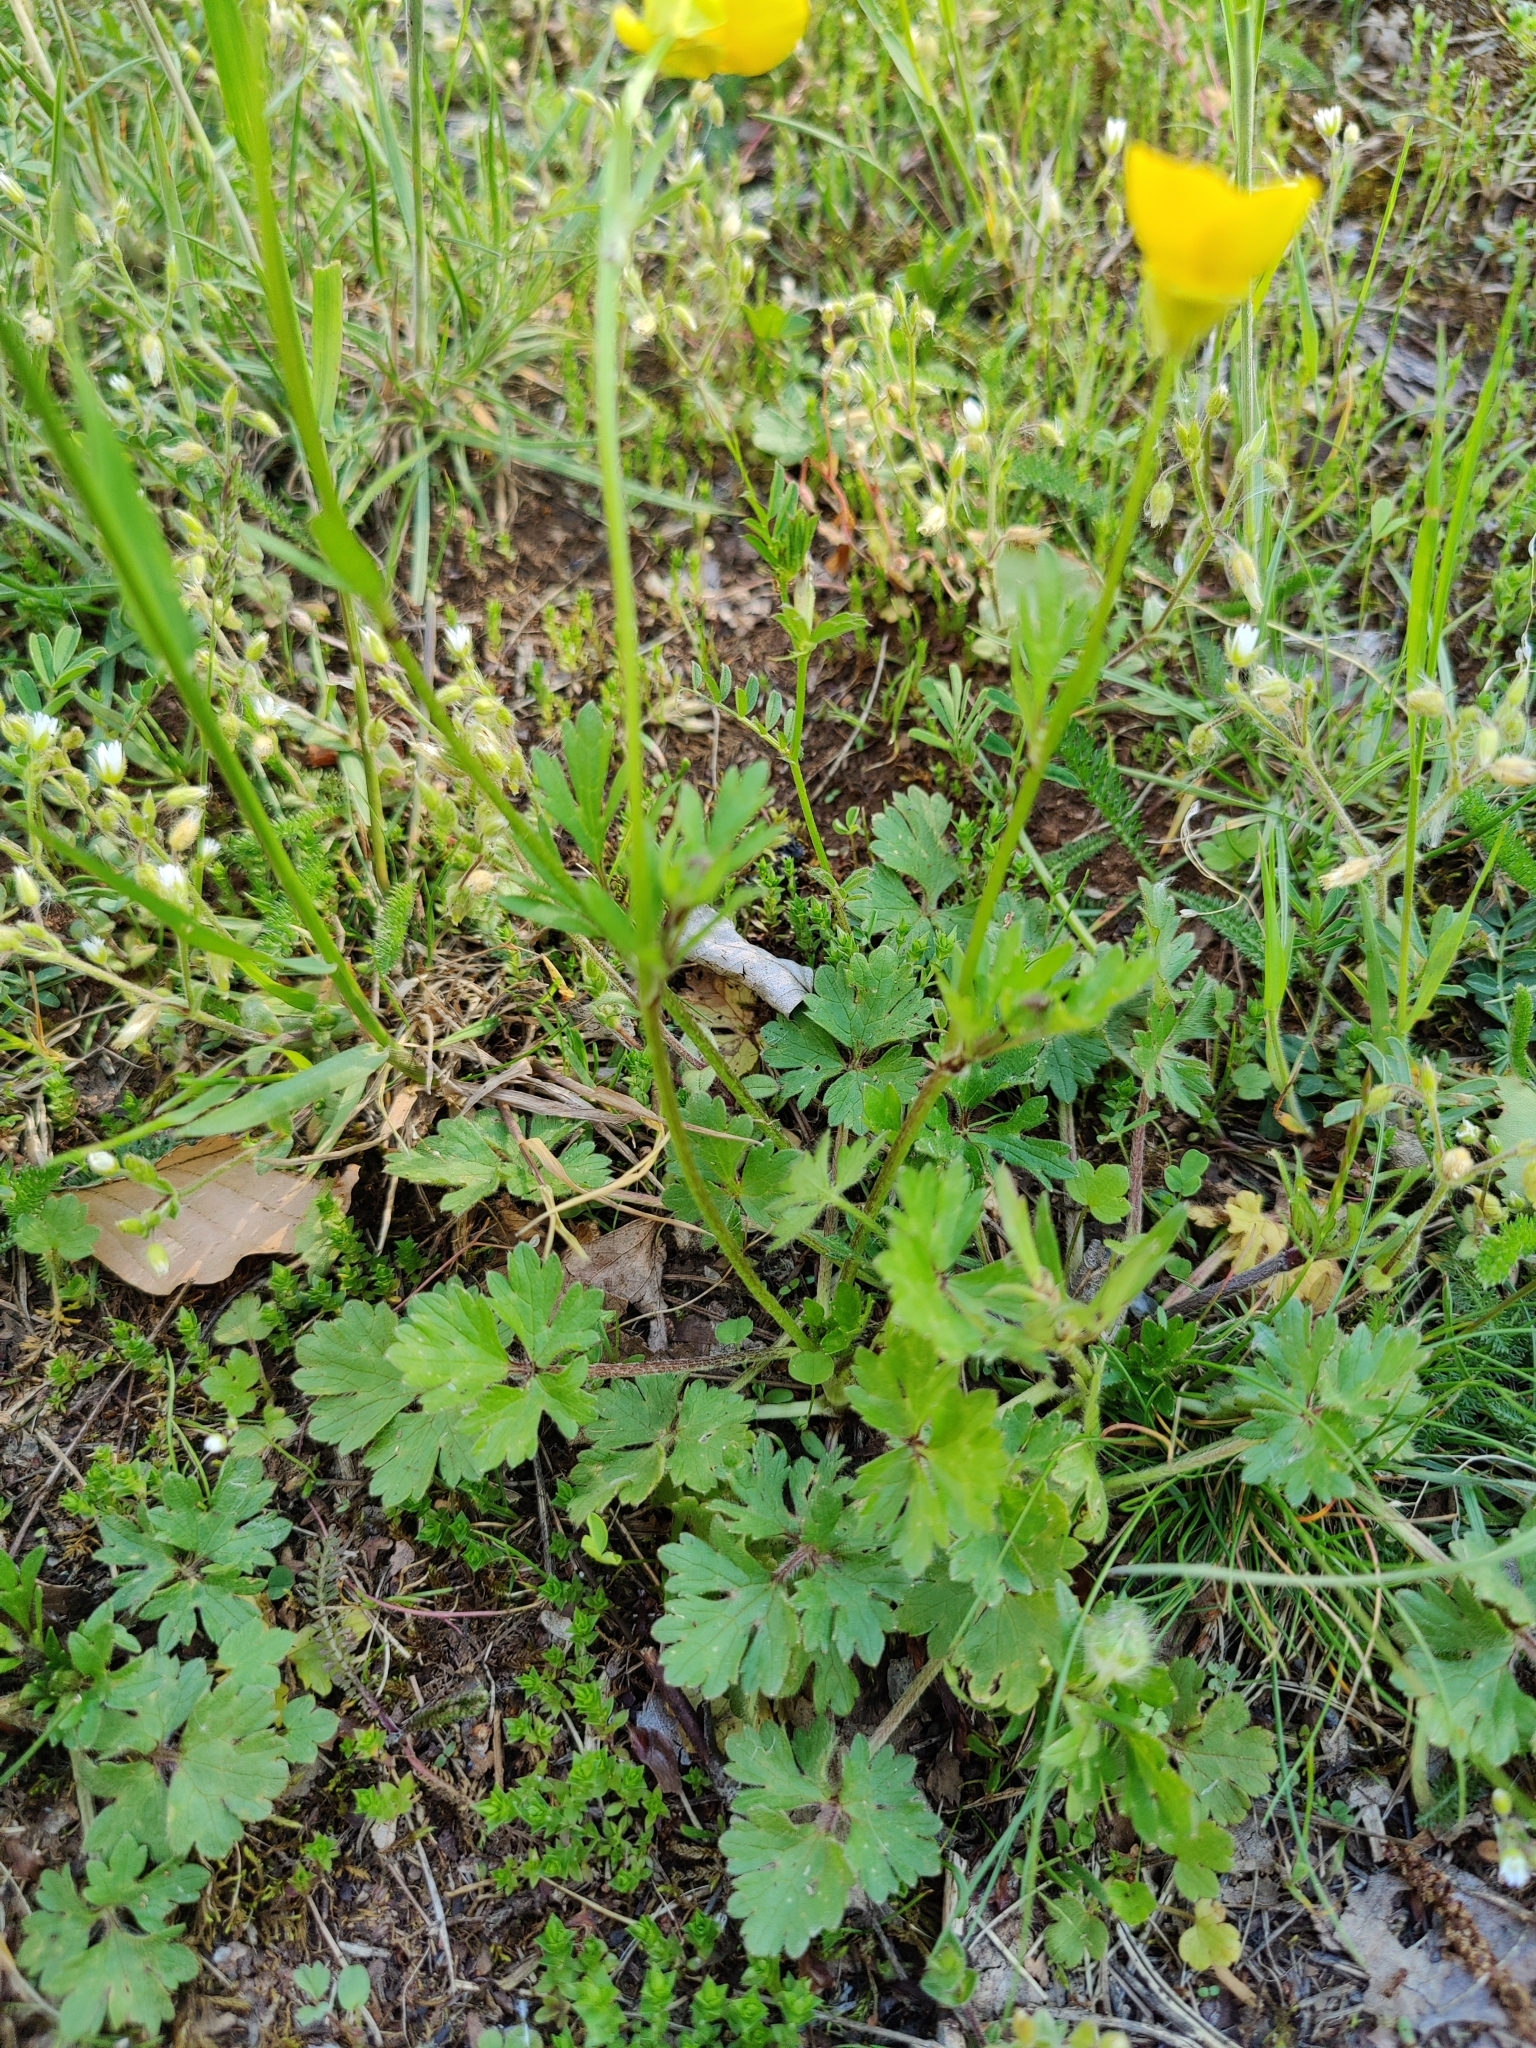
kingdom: Plantae
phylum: Tracheophyta
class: Magnoliopsida
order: Ranunculales
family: Ranunculaceae
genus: Ranunculus
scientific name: Ranunculus bulbosus
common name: Bulbous buttercup
